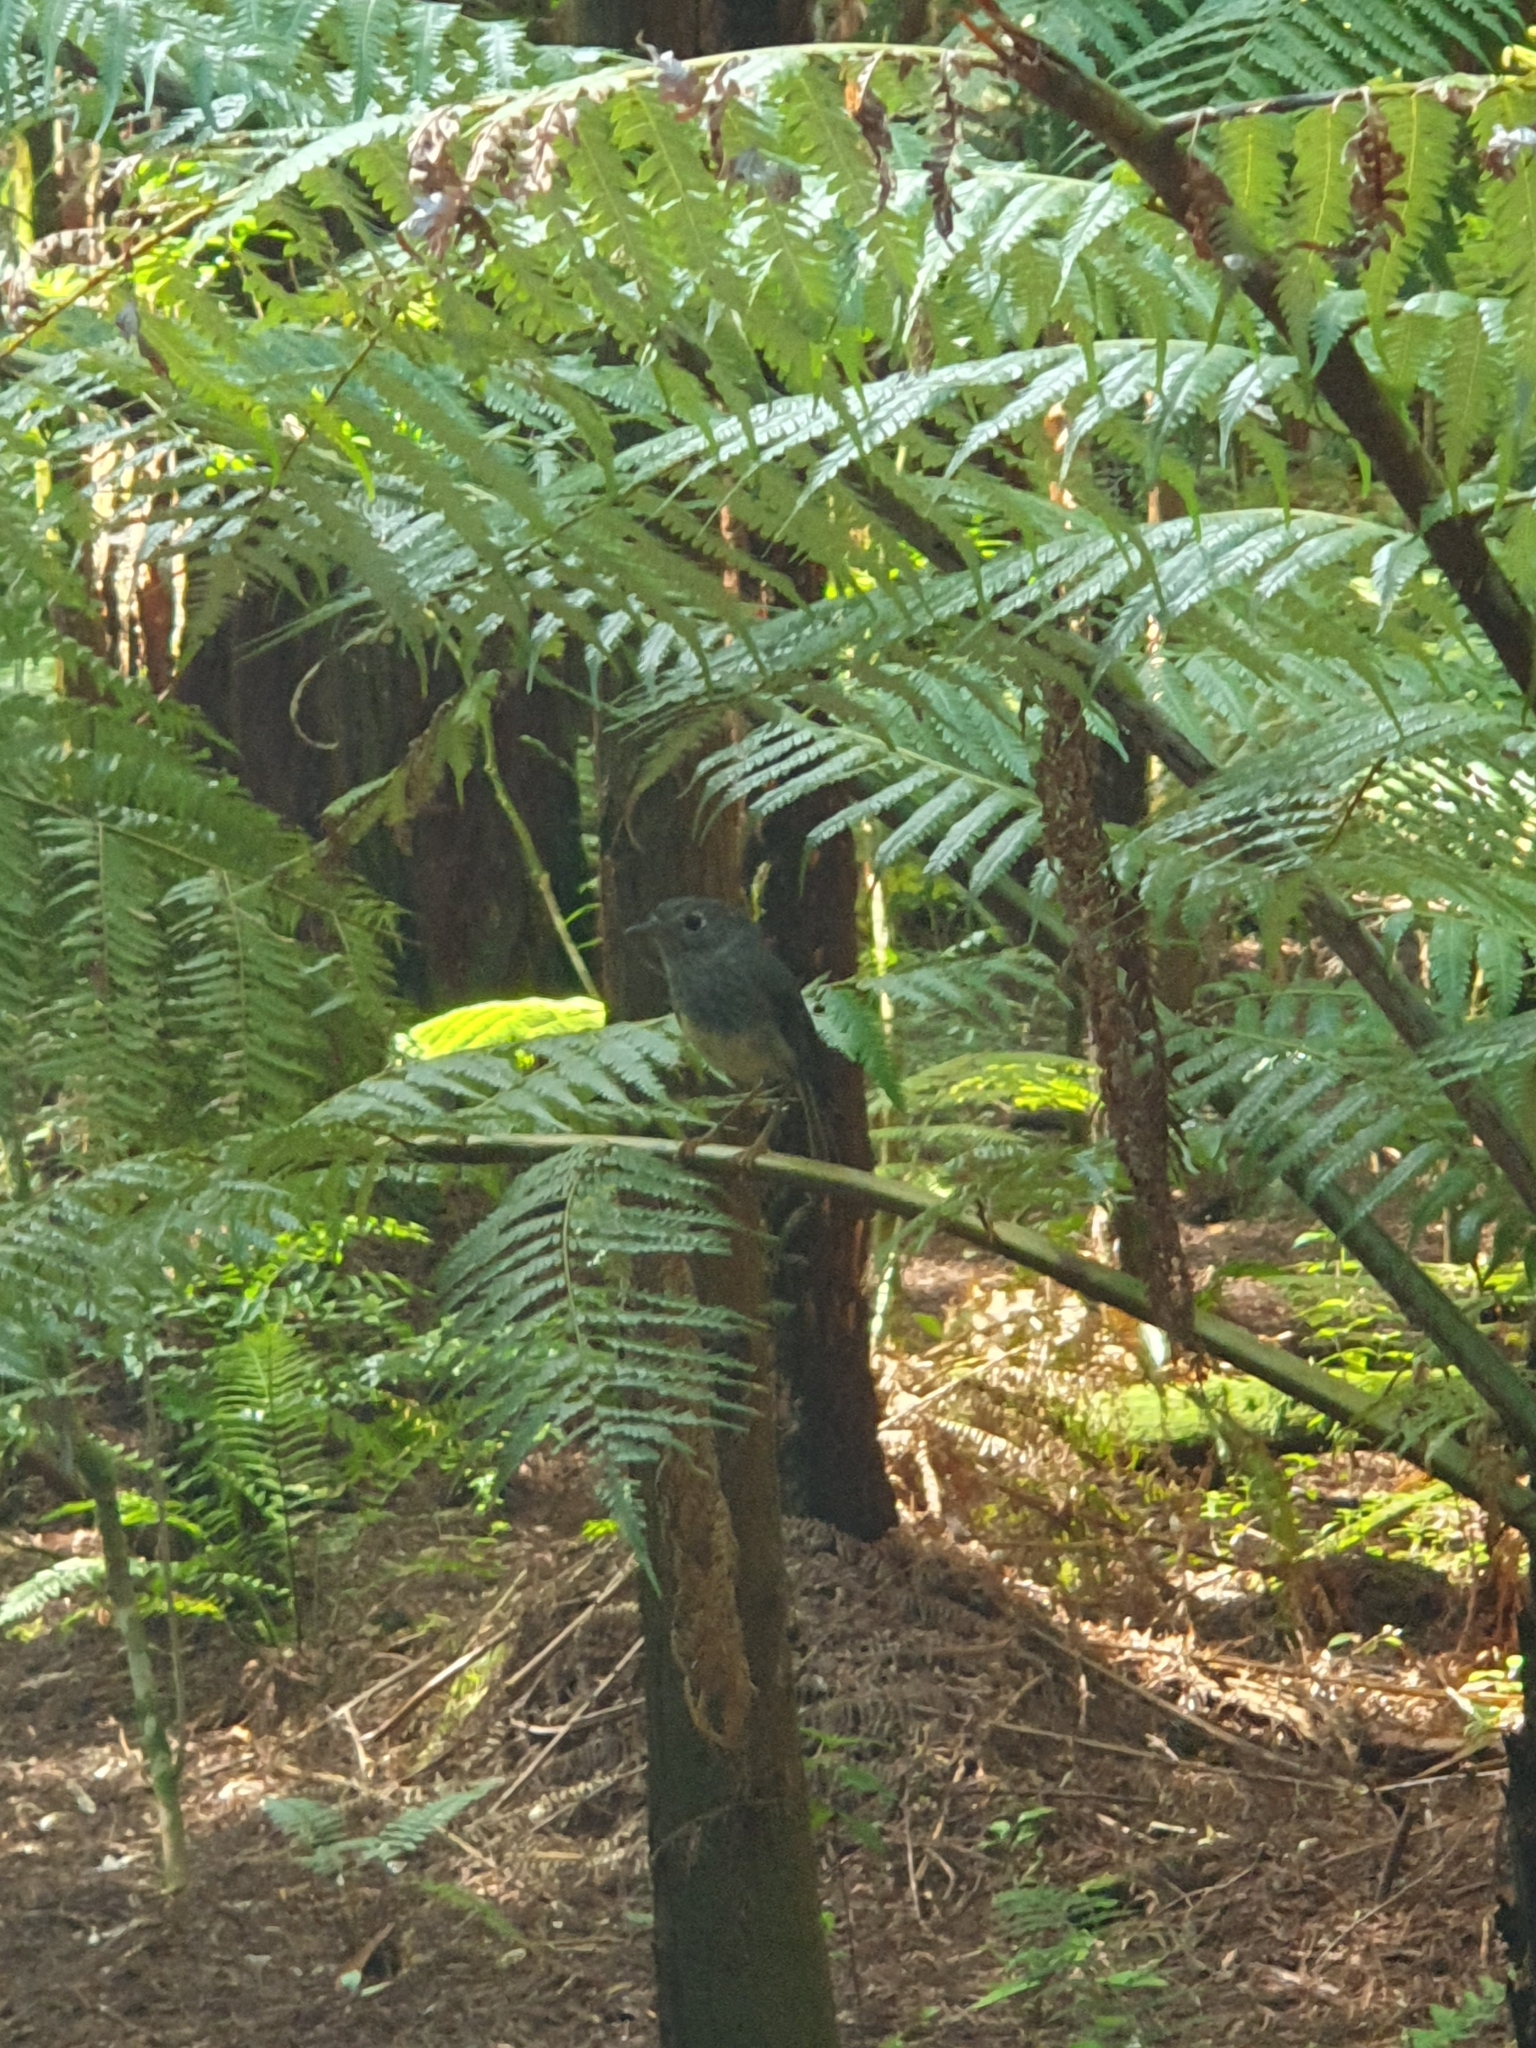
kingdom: Animalia
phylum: Chordata
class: Aves
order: Passeriformes
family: Petroicidae
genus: Petroica
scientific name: Petroica australis
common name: New zealand robin
